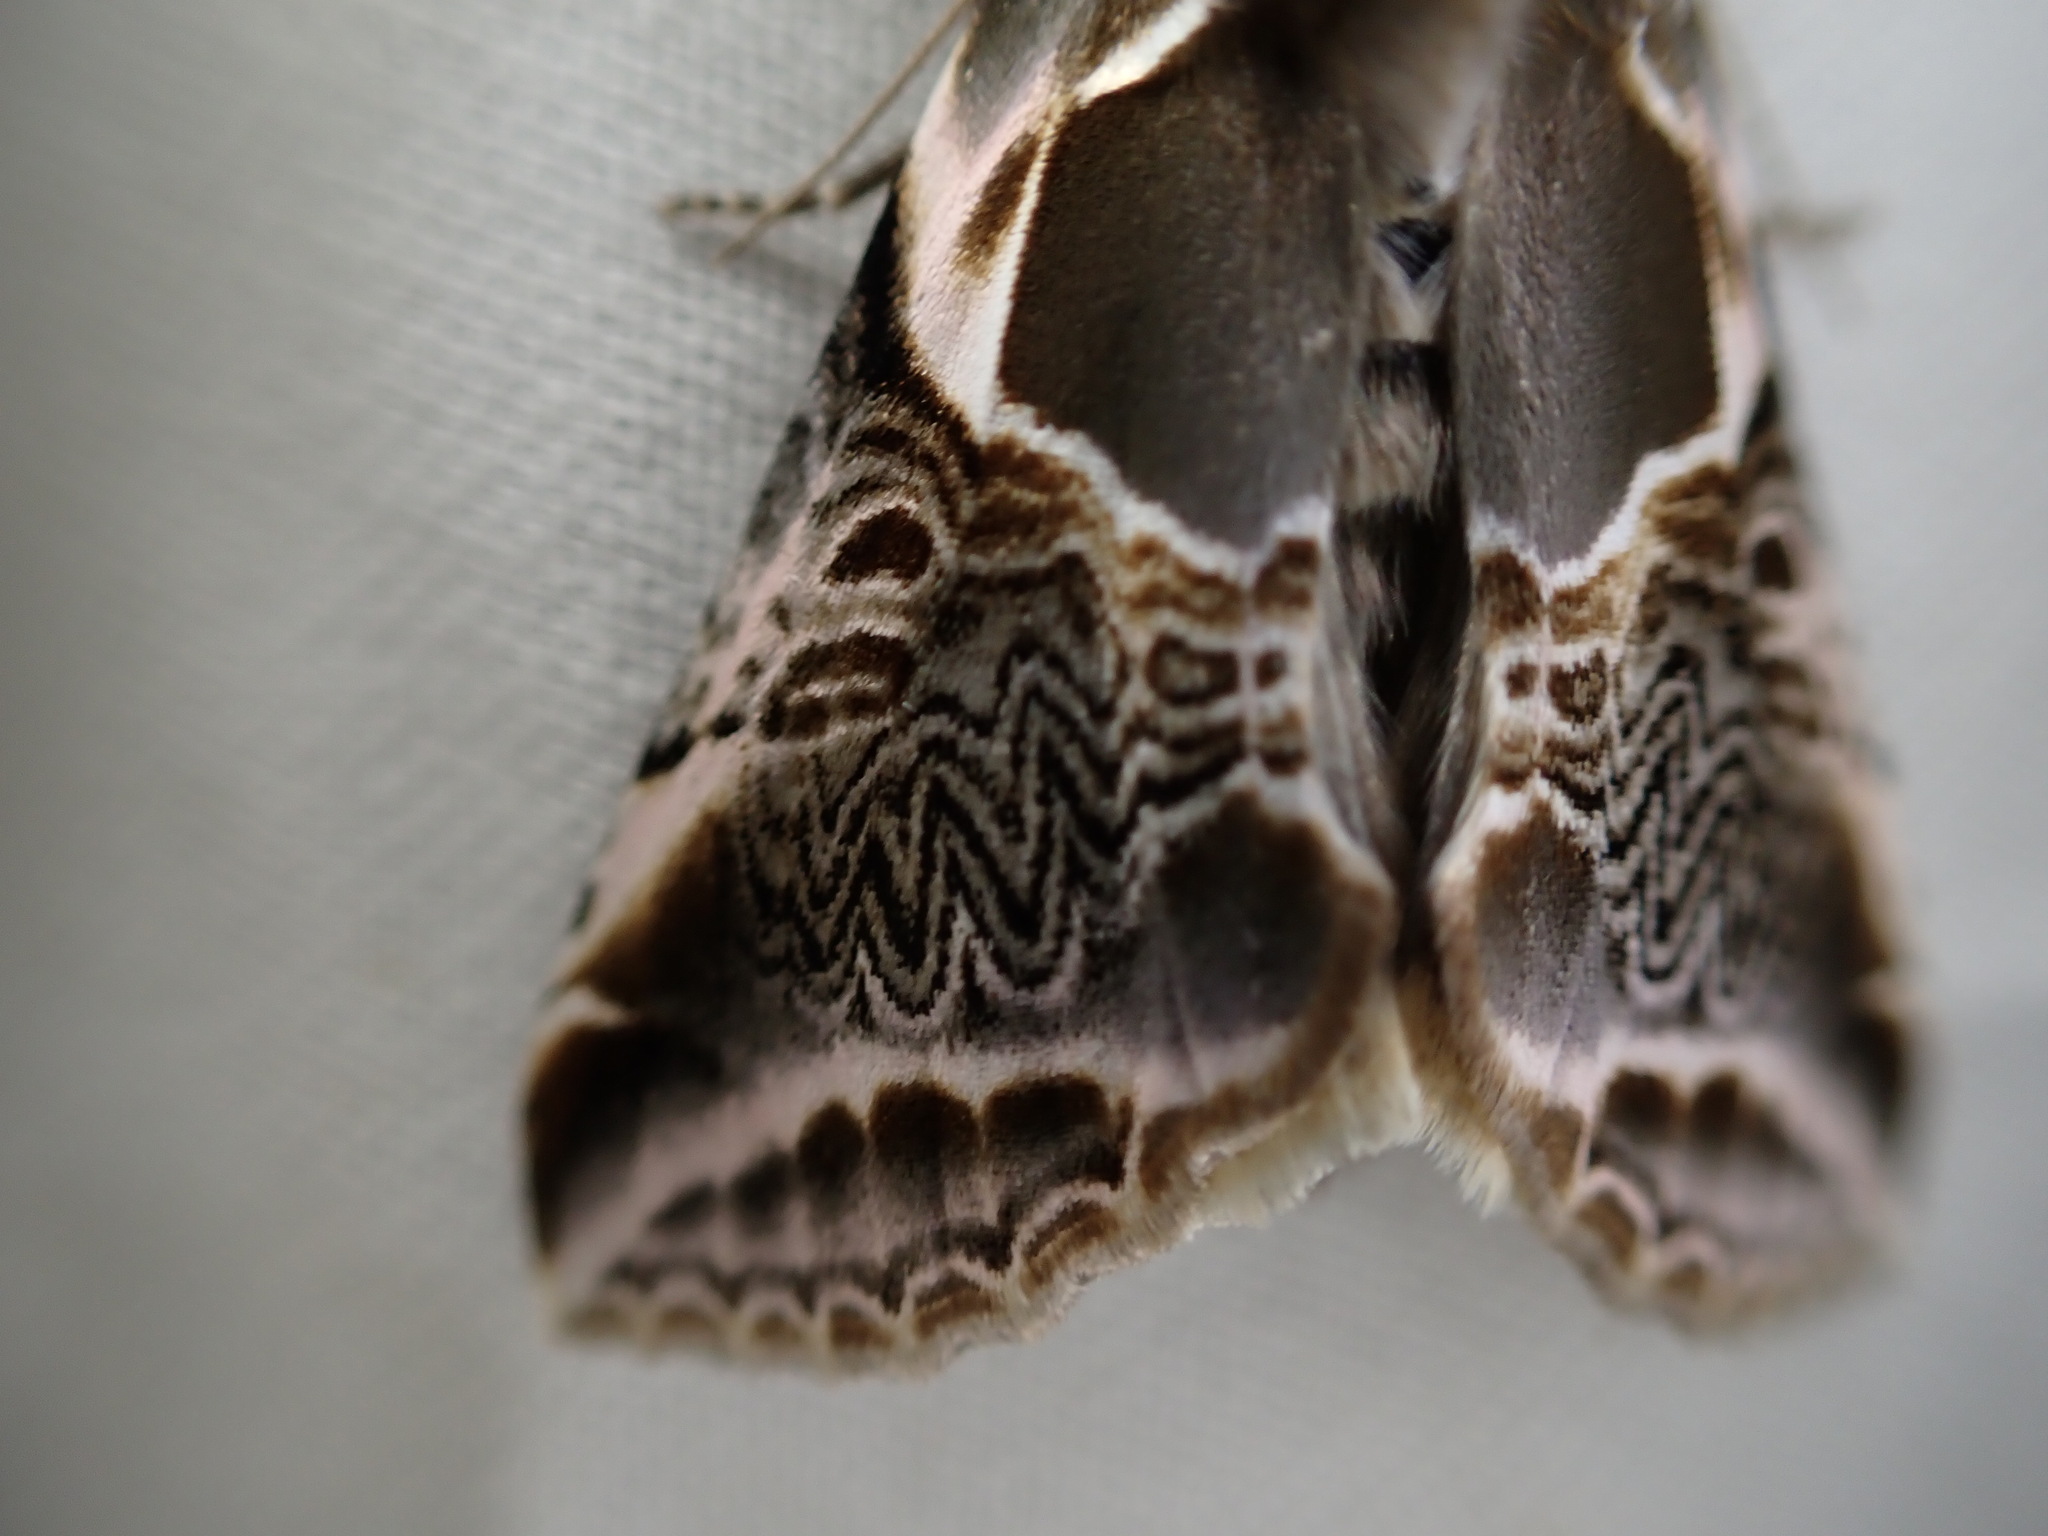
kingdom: Animalia
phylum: Arthropoda
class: Insecta
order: Lepidoptera
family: Drepanidae
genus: Habrosyne
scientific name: Habrosyne scripta
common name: Lettered habrosyne moth
